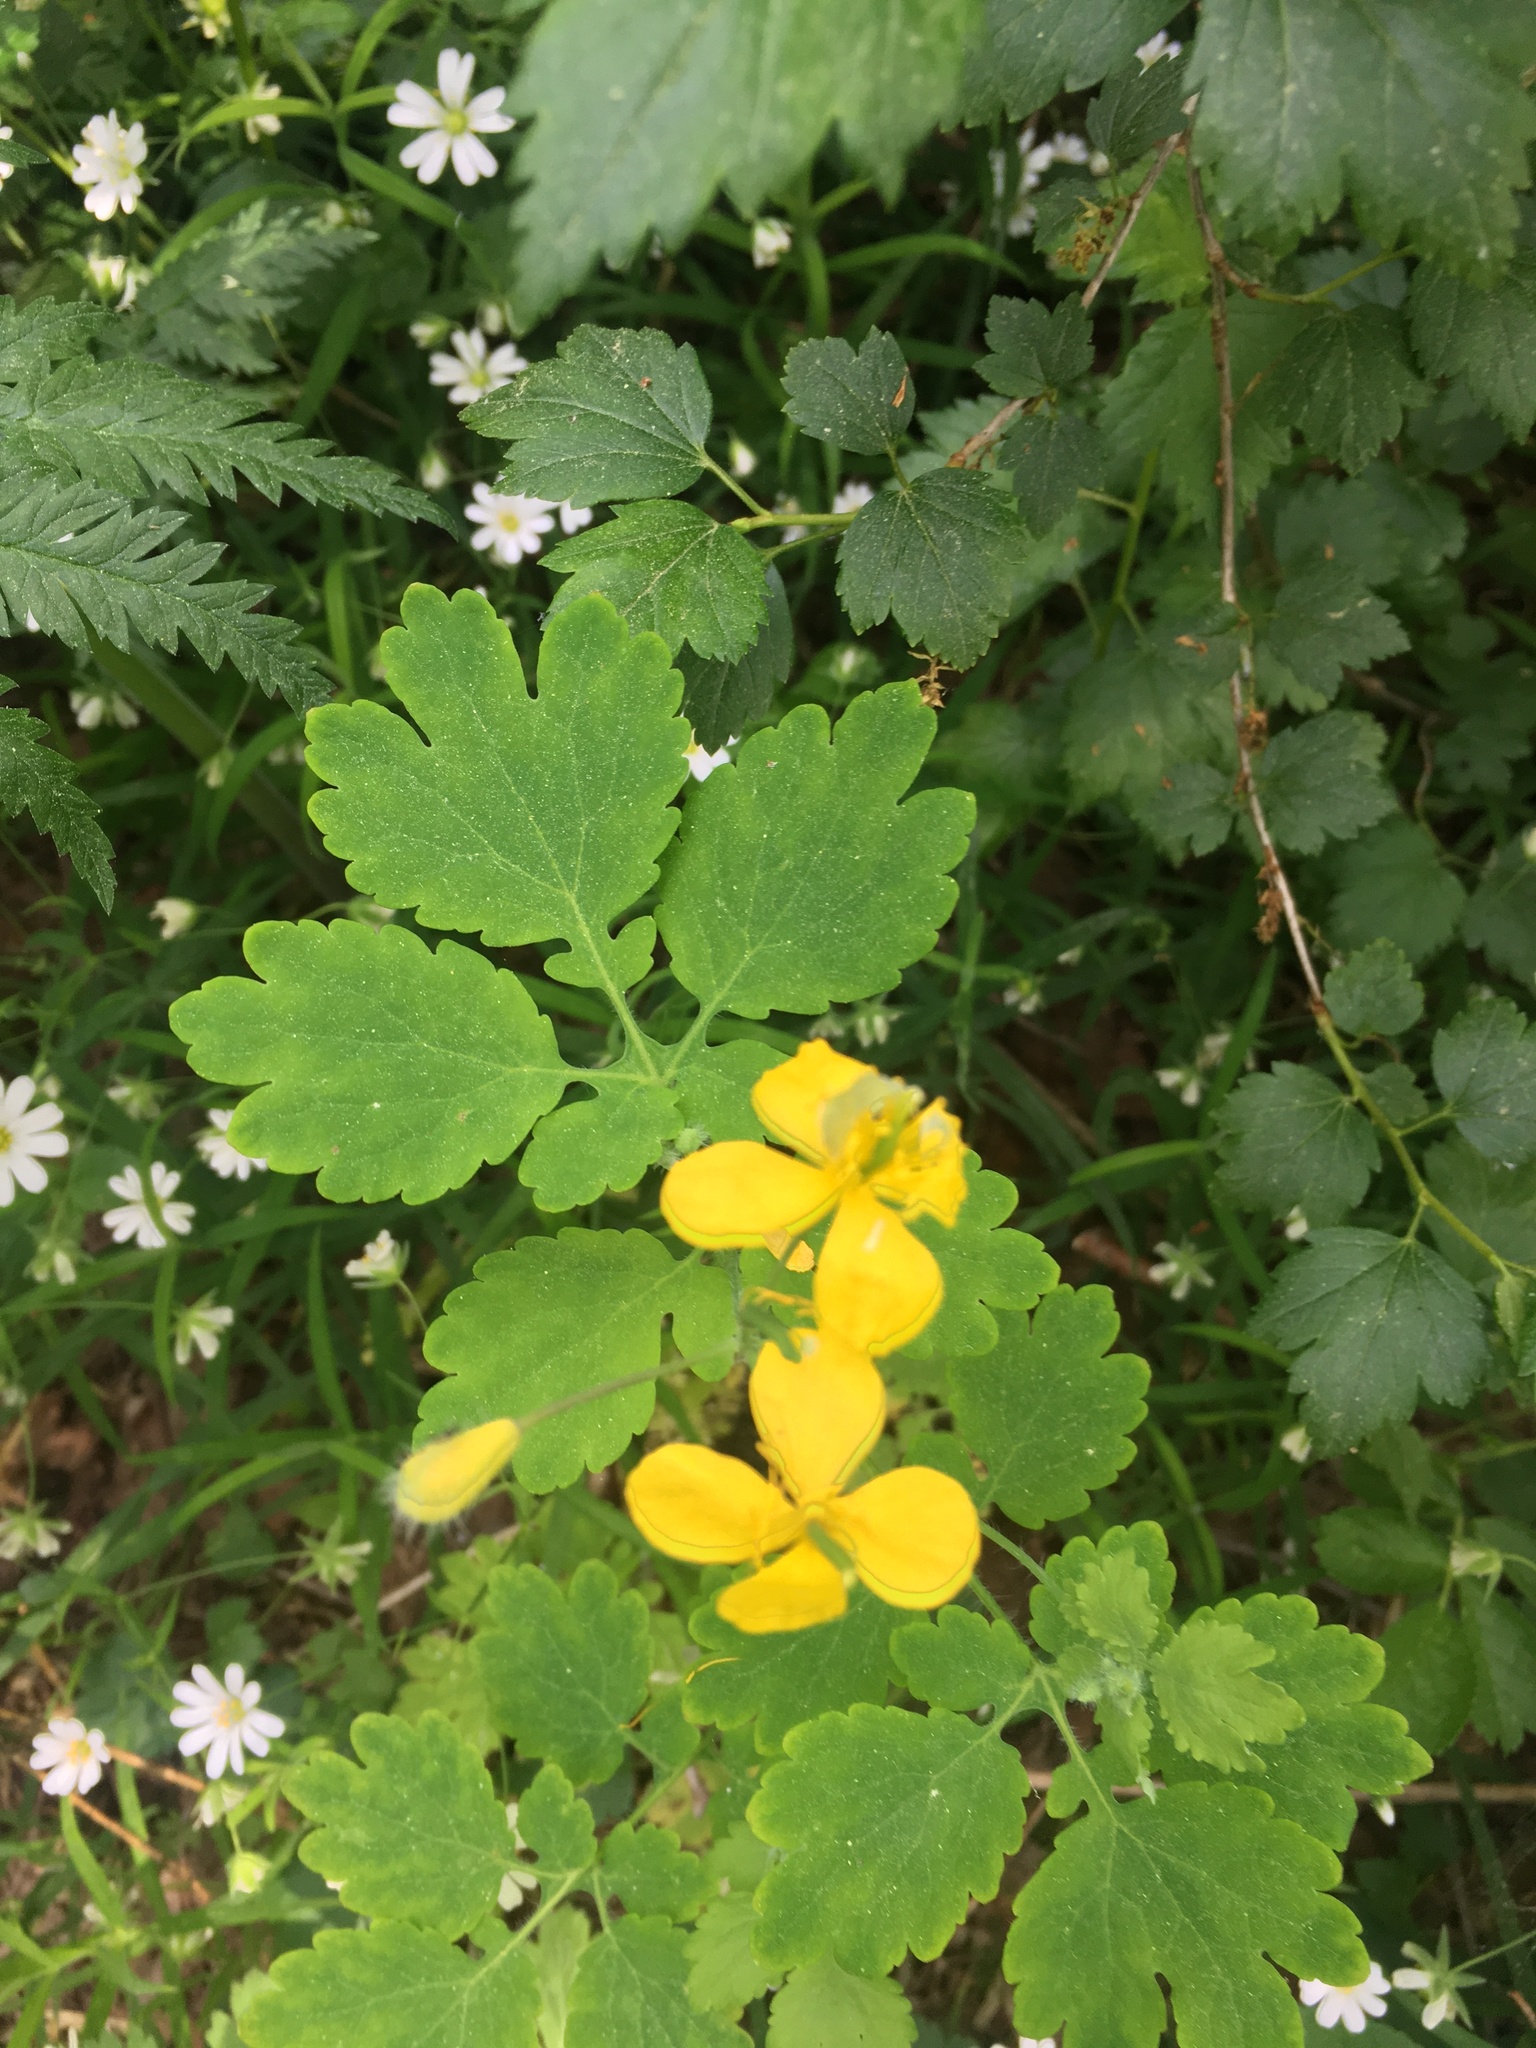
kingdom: Plantae
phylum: Tracheophyta
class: Magnoliopsida
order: Ranunculales
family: Papaveraceae
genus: Chelidonium
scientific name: Chelidonium majus
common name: Greater celandine
